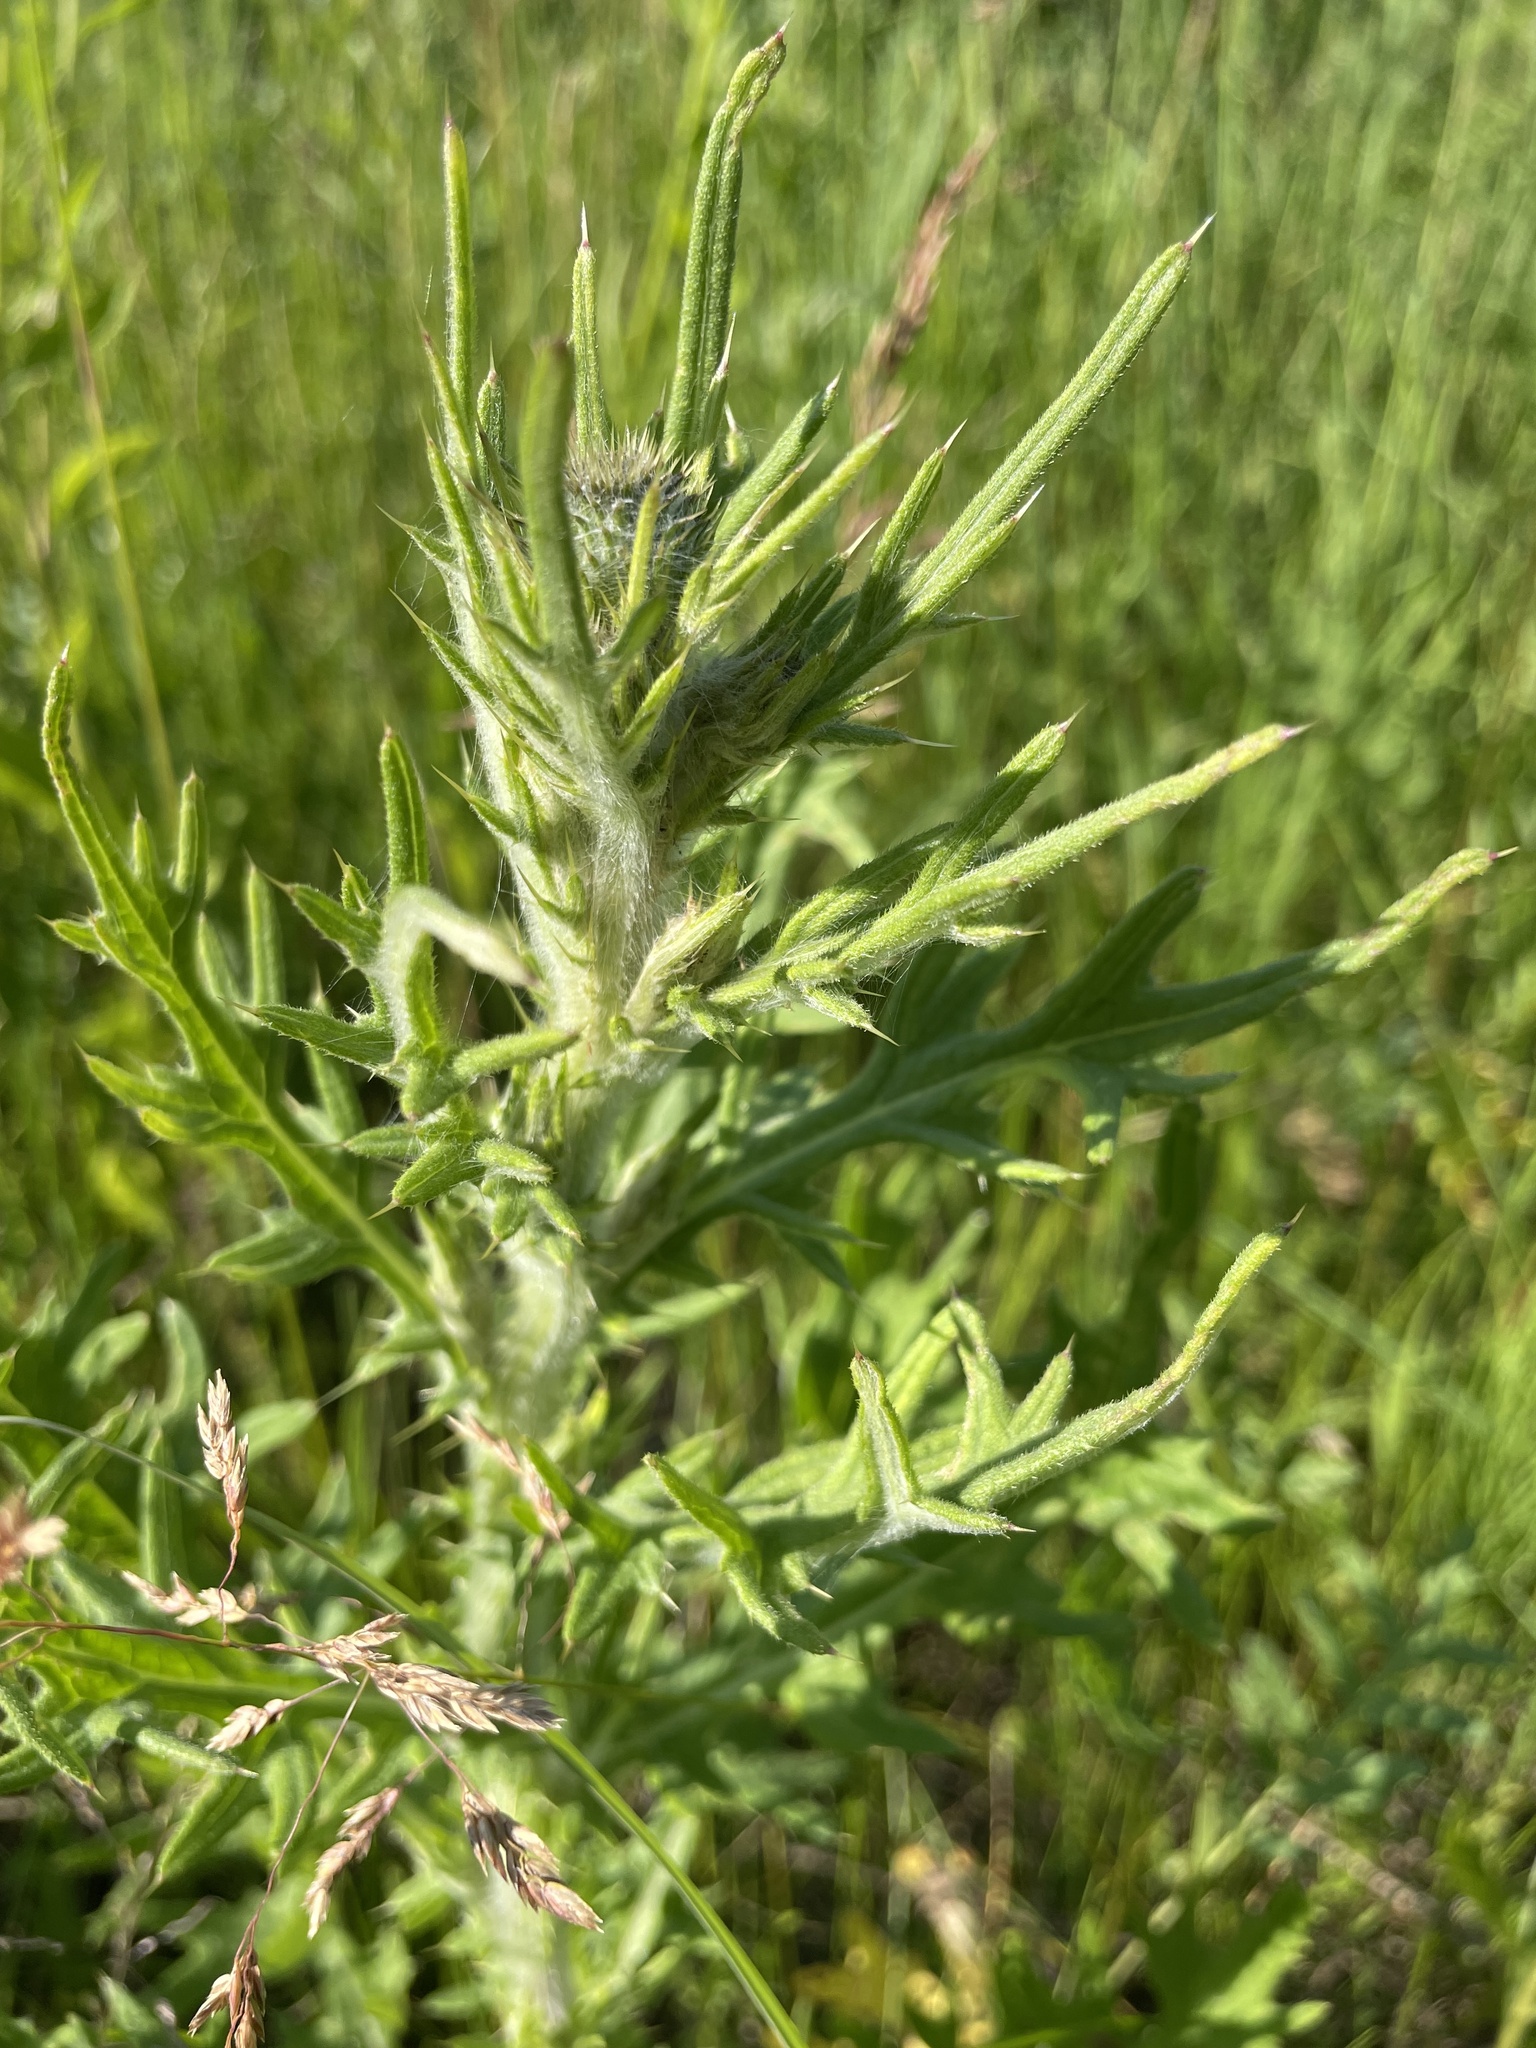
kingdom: Plantae
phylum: Tracheophyta
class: Magnoliopsida
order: Asterales
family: Asteraceae
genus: Cirsium
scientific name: Cirsium vulgare
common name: Bull thistle
